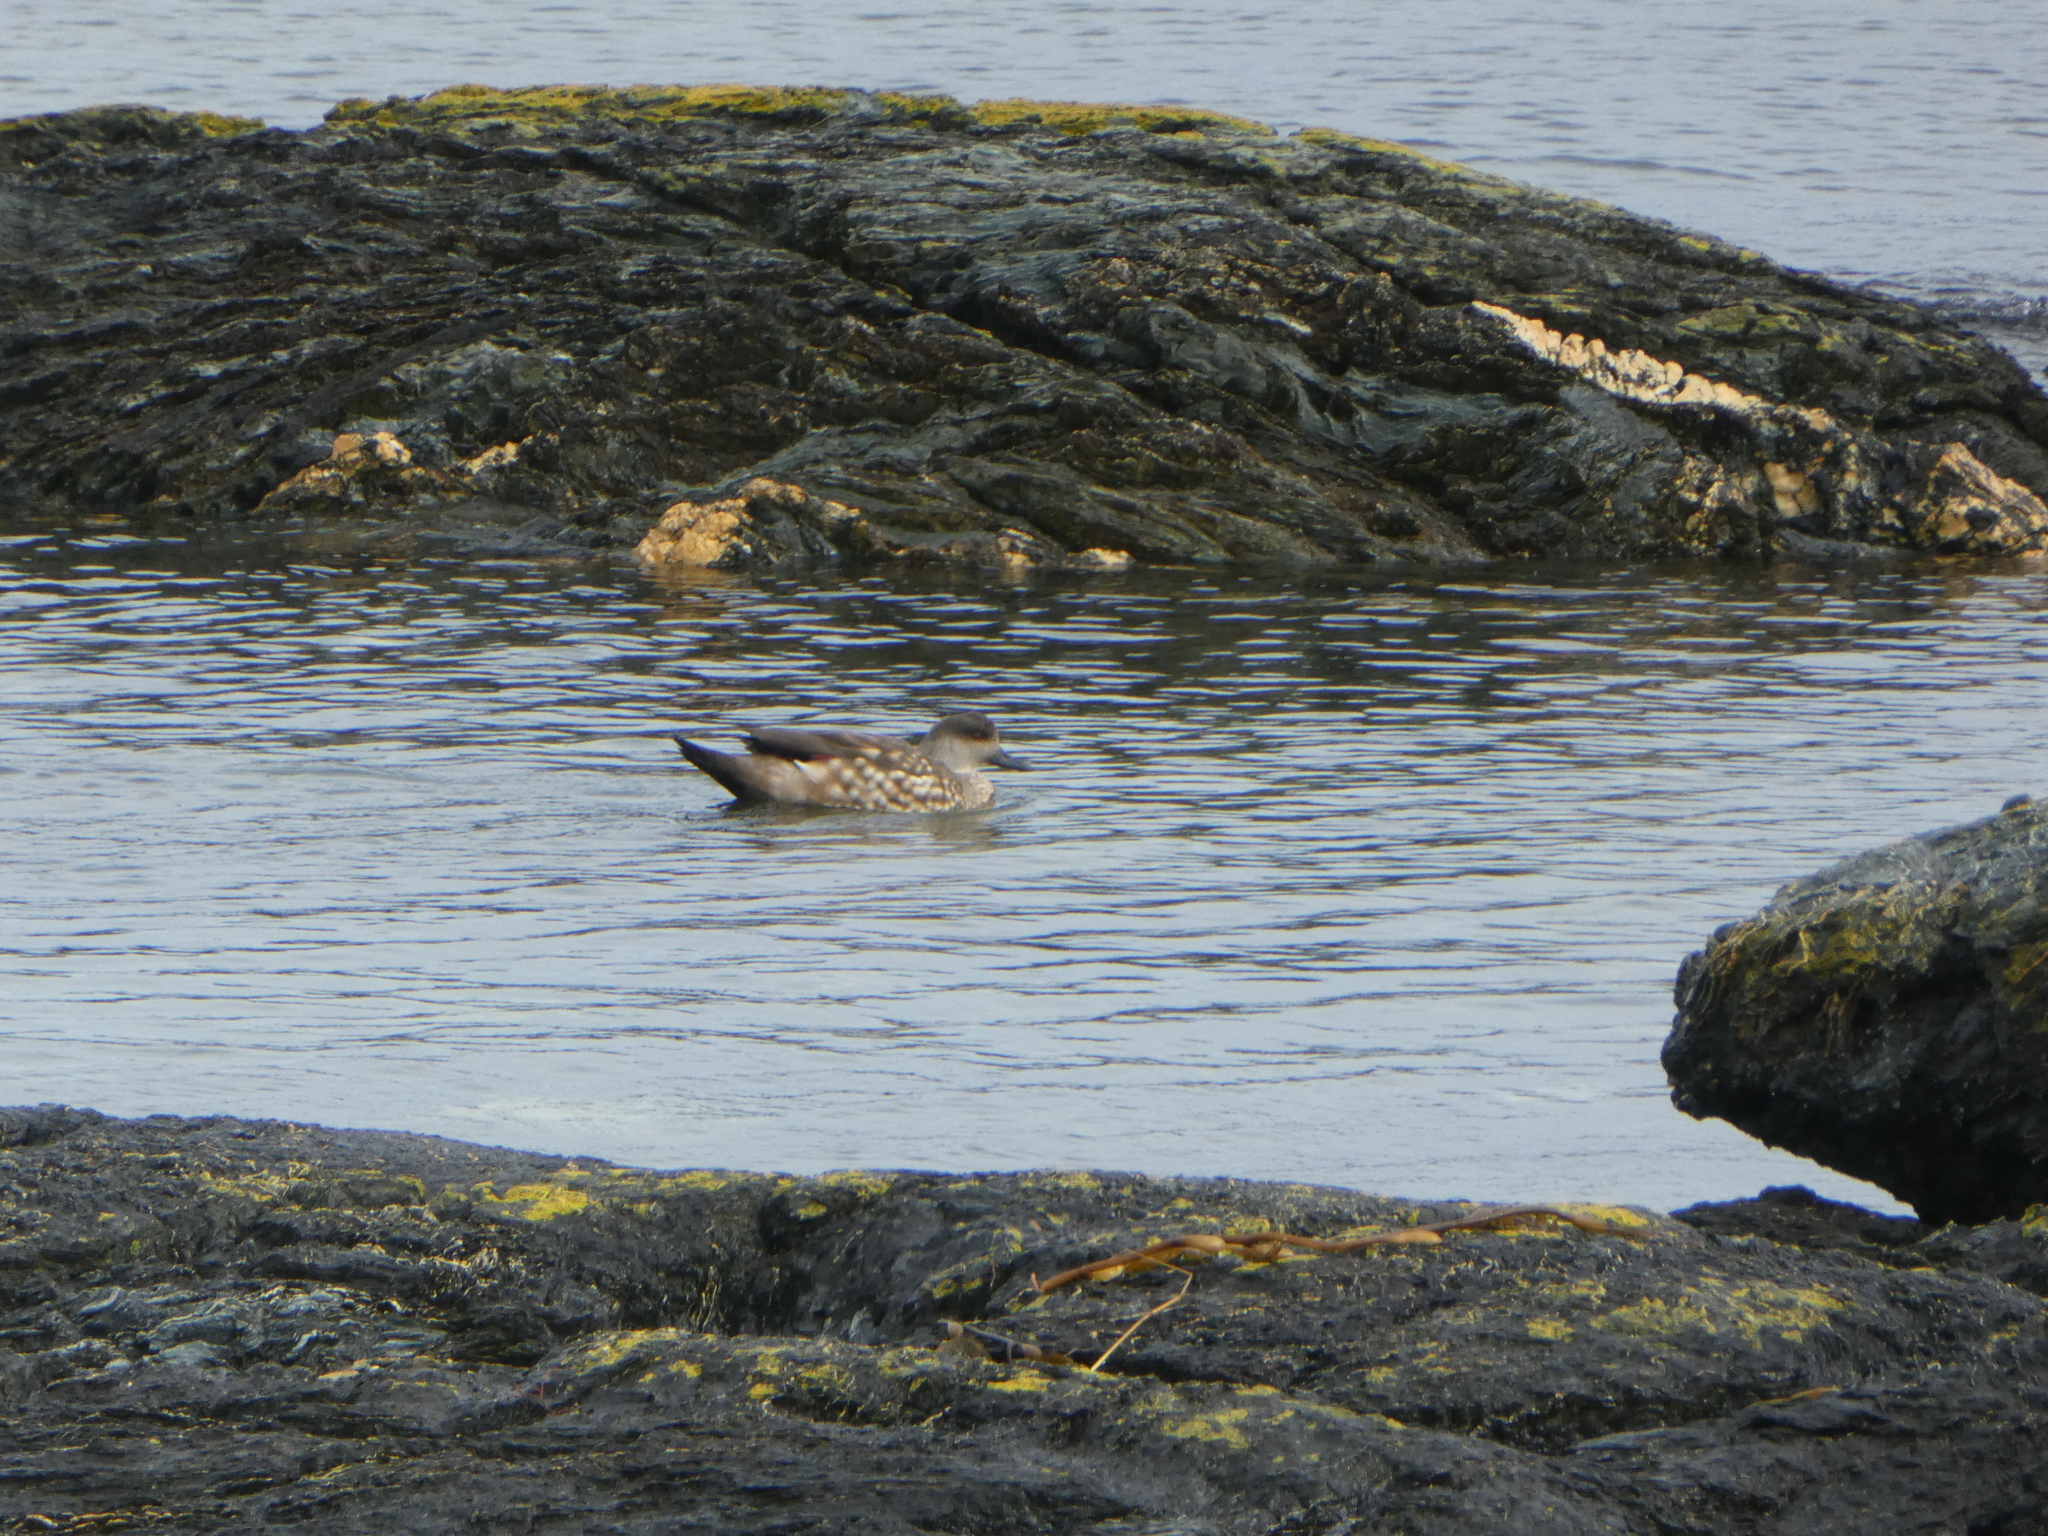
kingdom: Animalia
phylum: Chordata
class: Aves
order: Anseriformes
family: Anatidae
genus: Lophonetta
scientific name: Lophonetta specularioides
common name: Crested duck
